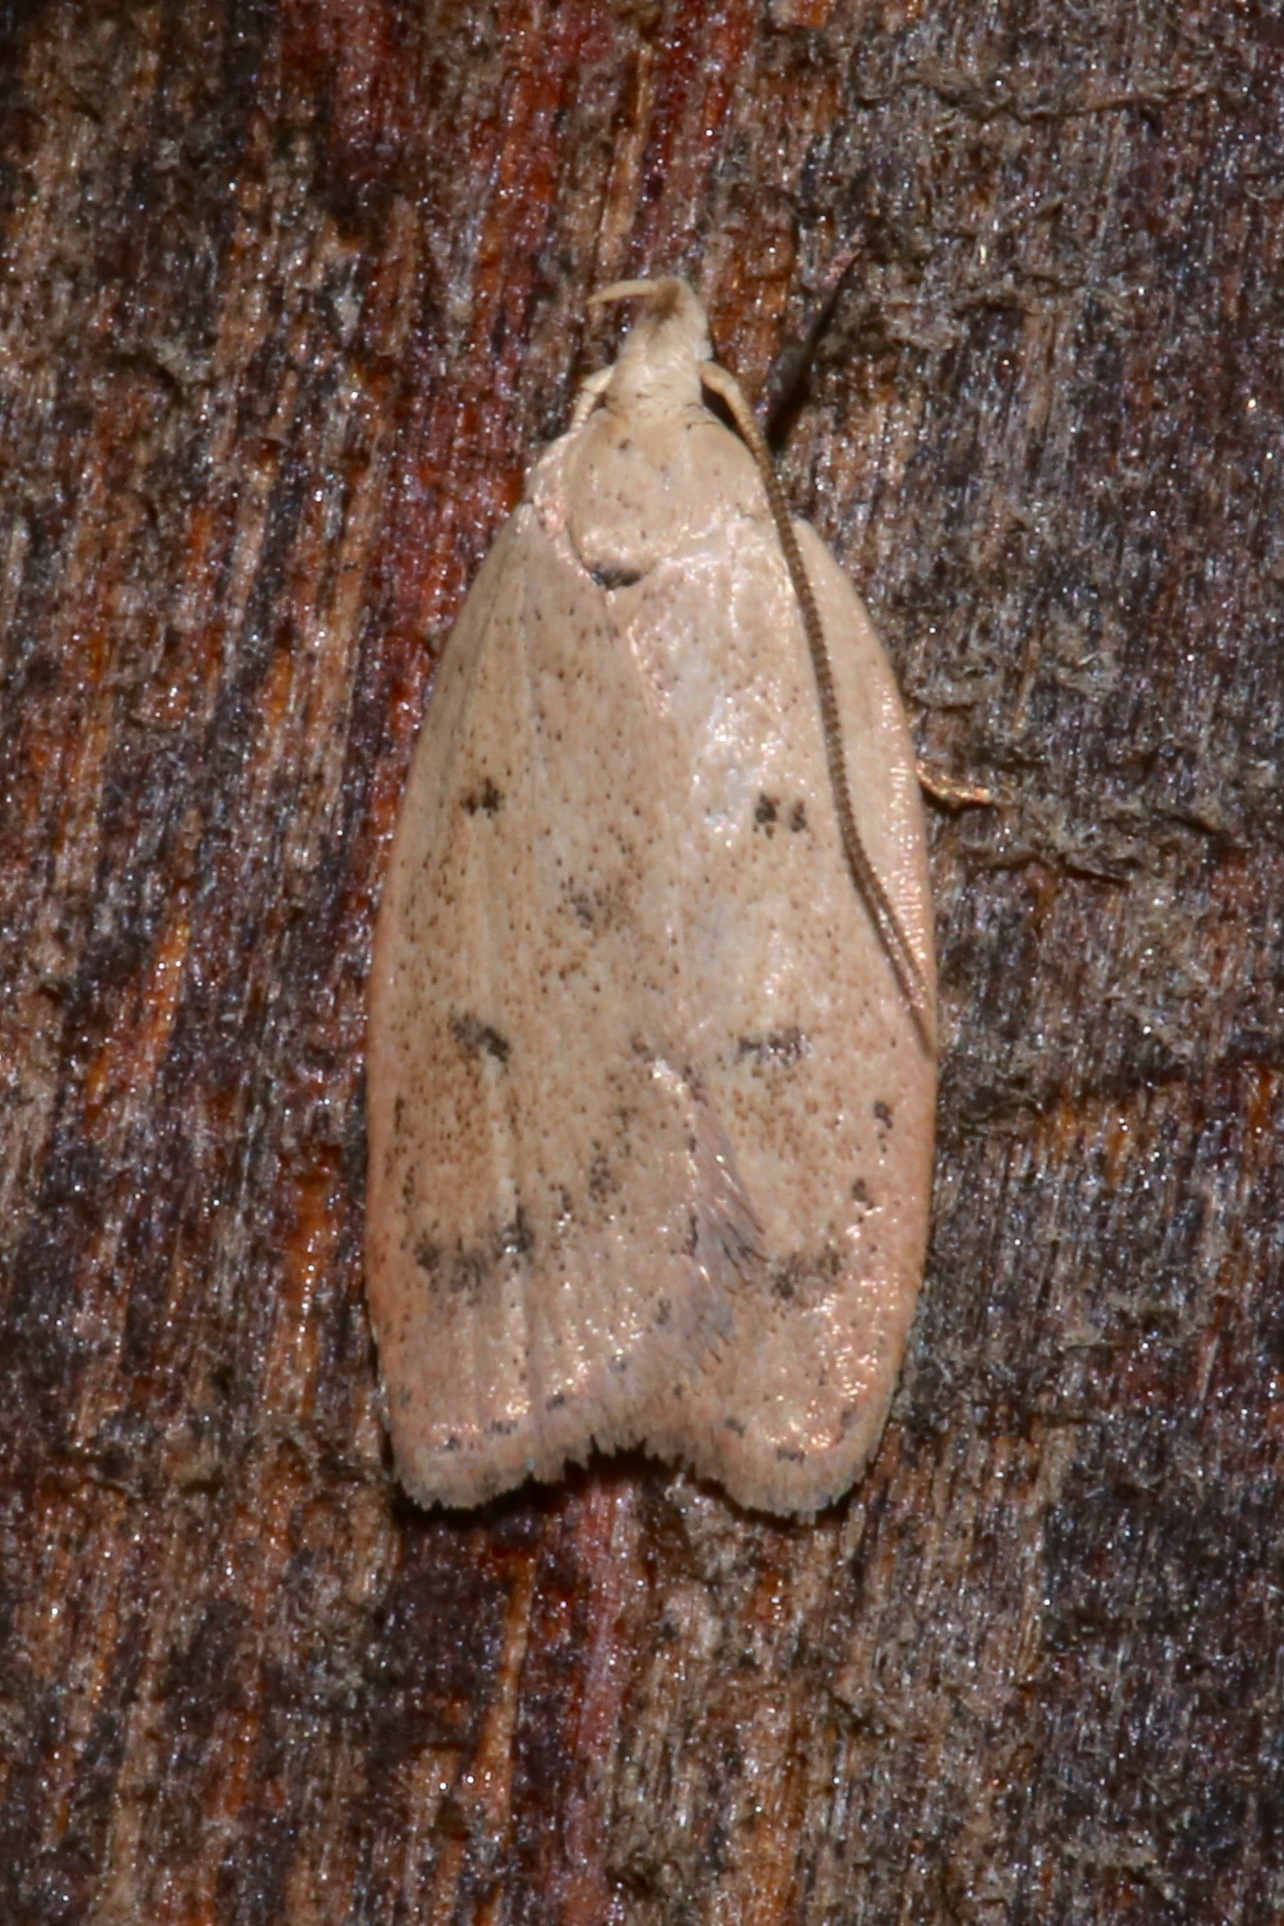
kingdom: Animalia
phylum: Arthropoda
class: Insecta
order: Lepidoptera
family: Peleopodidae
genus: Machimia
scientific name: Machimia tentoriferella
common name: Gold-striped leaftier moth
